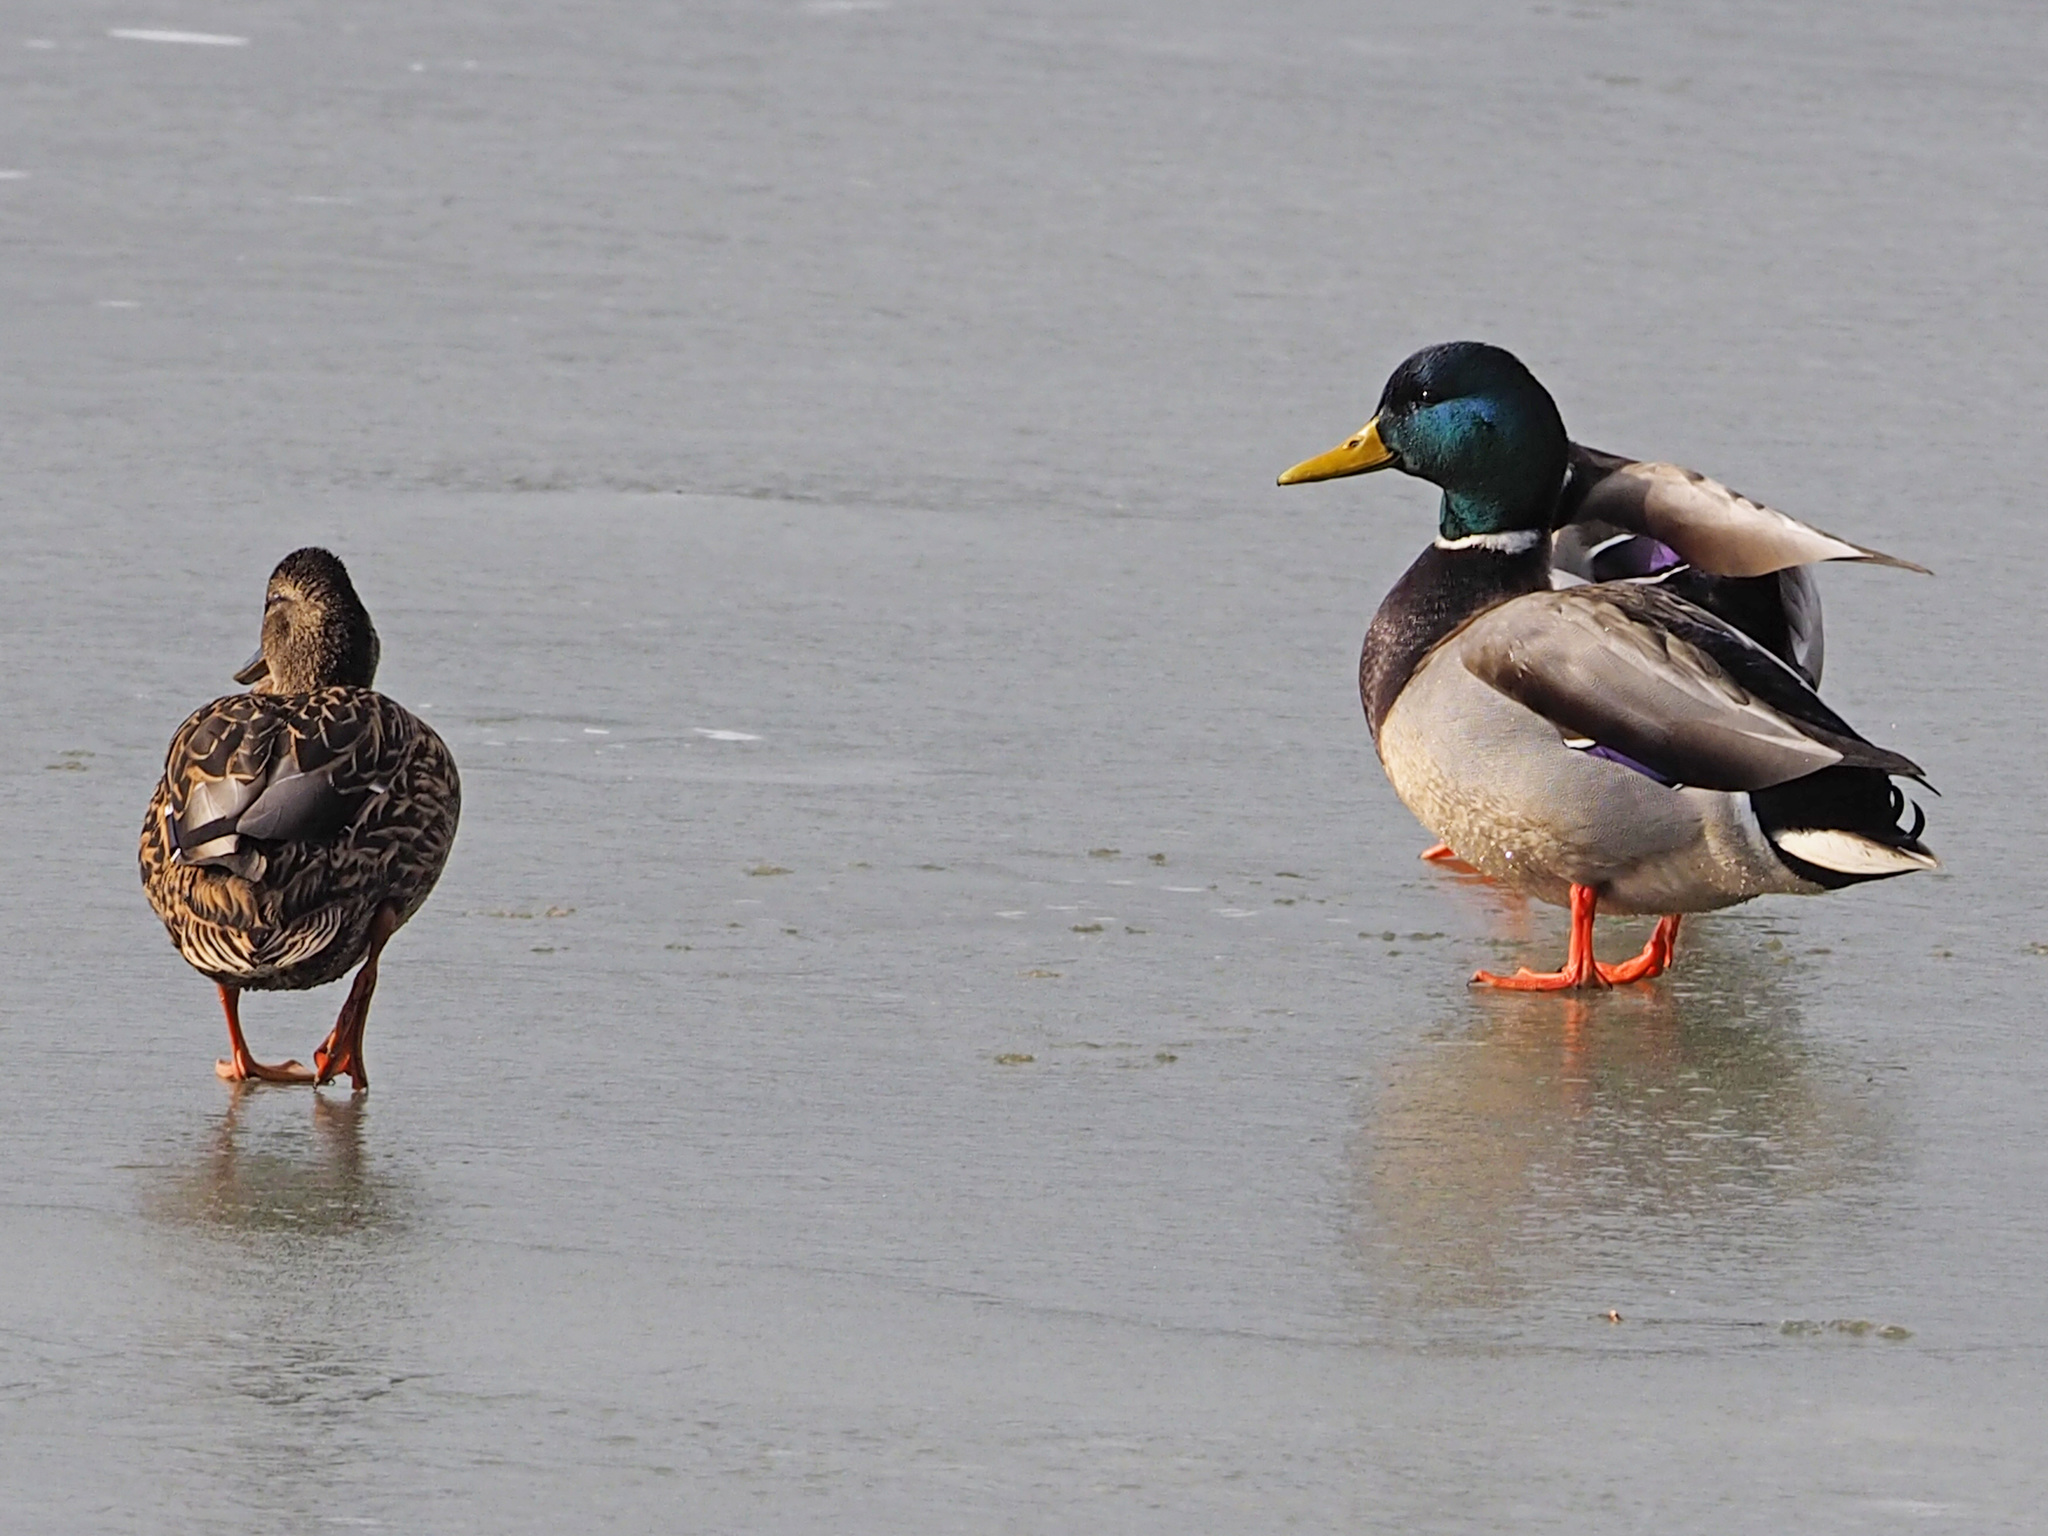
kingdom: Animalia
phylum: Chordata
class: Aves
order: Anseriformes
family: Anatidae
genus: Anas
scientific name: Anas platyrhynchos
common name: Mallard
